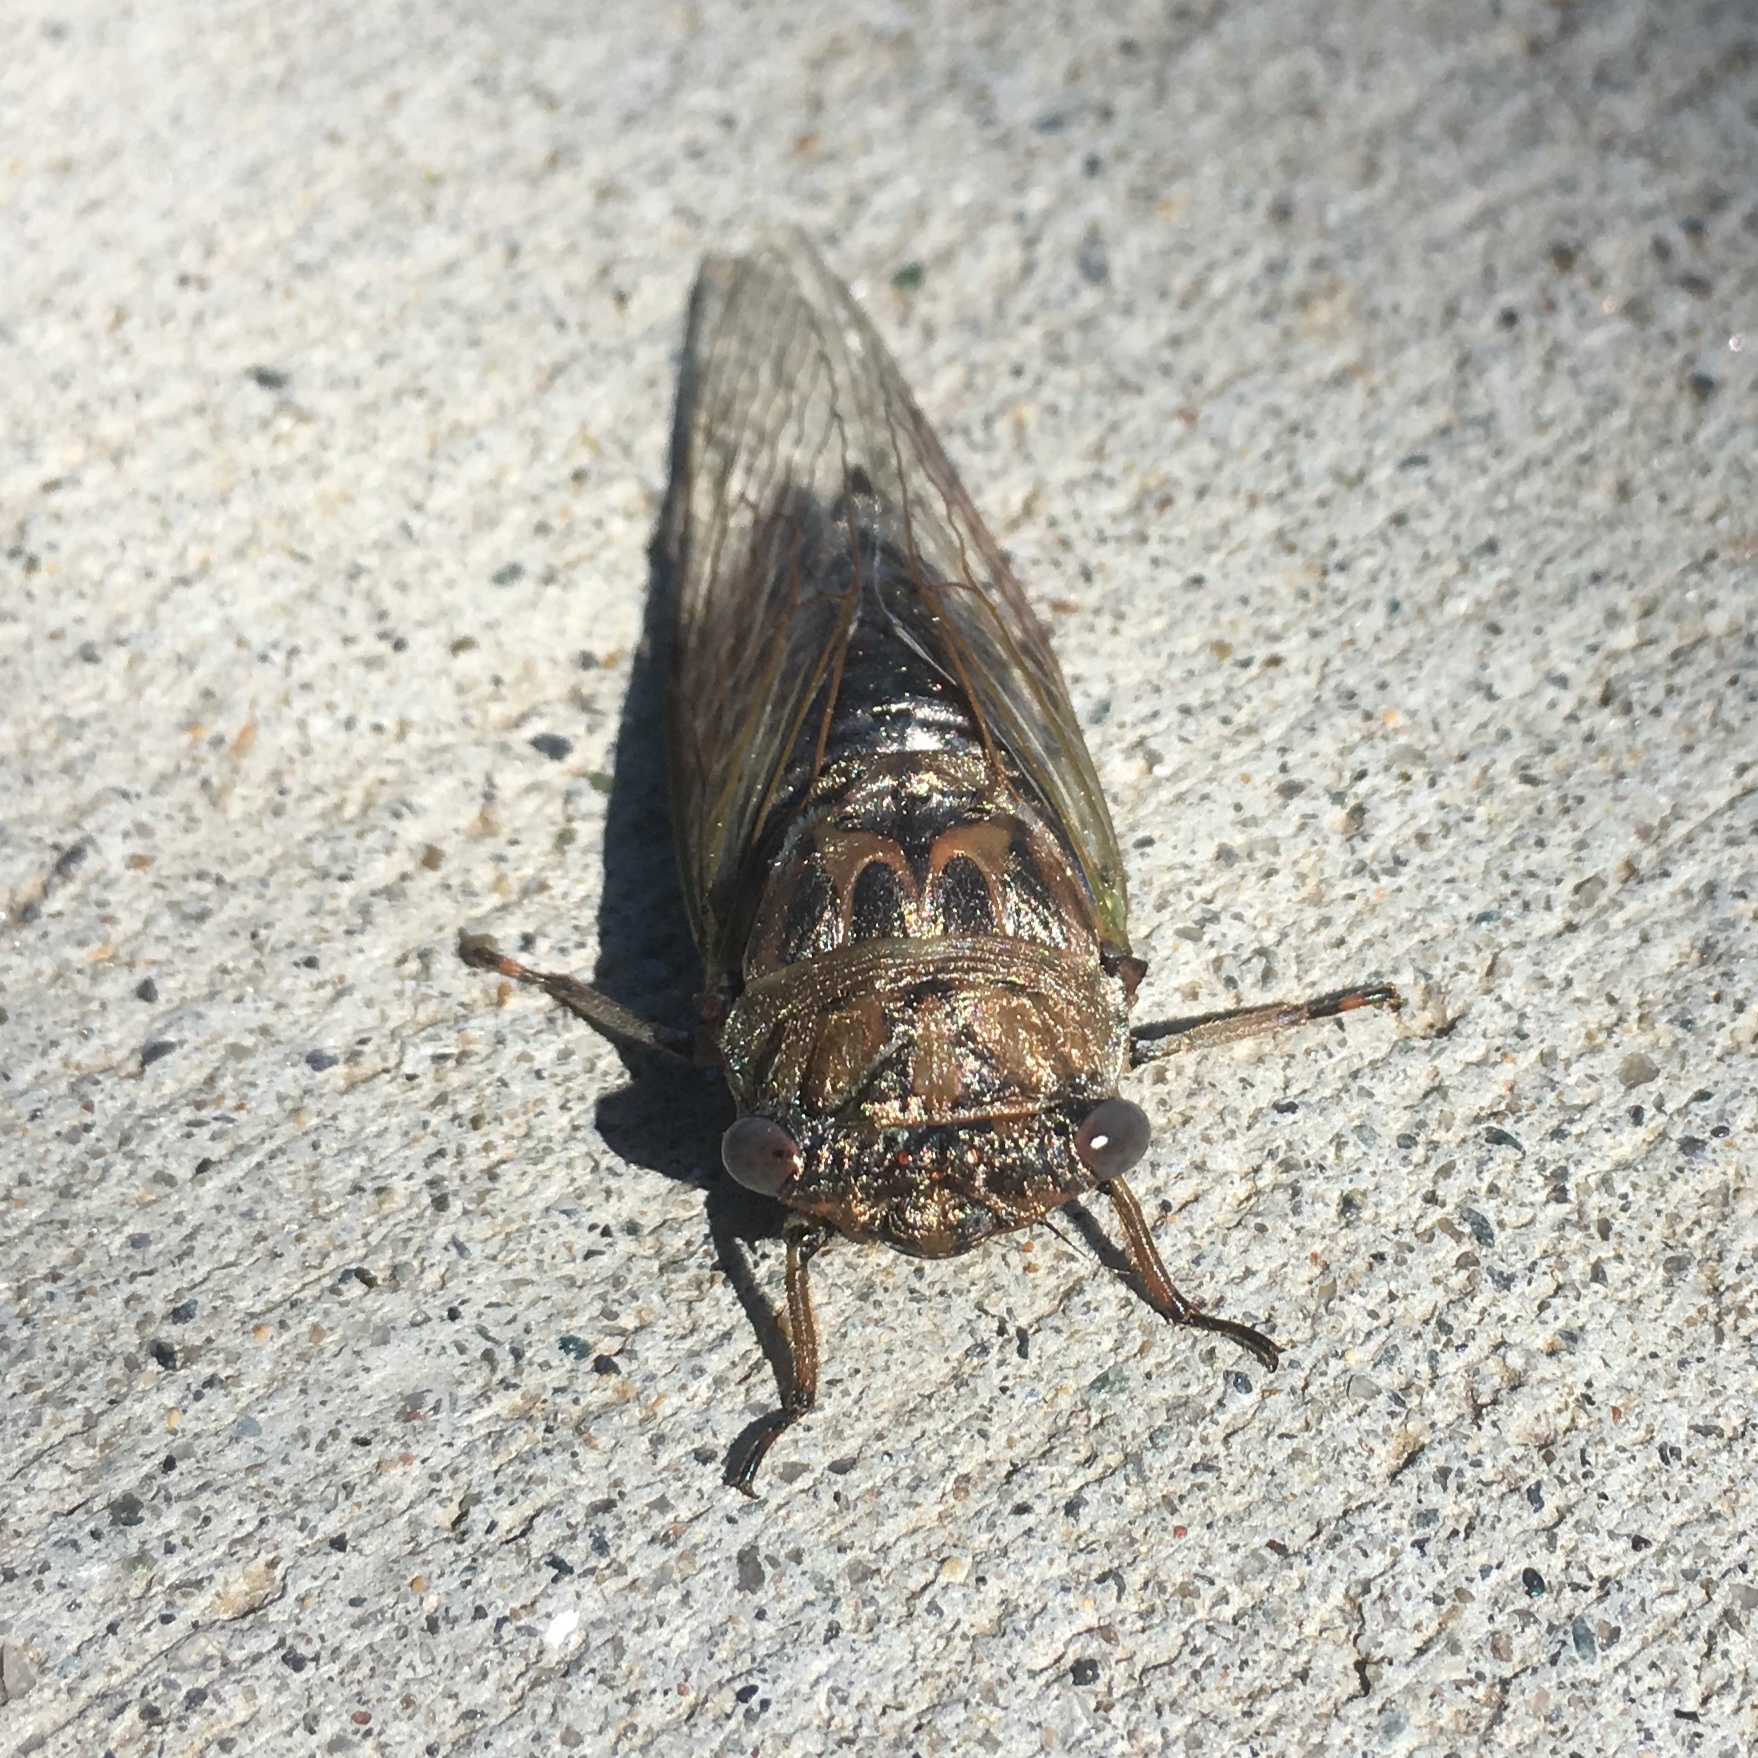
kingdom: Animalia
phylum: Arthropoda
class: Insecta
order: Hemiptera
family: Cicadidae
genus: Neotibicen
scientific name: Neotibicen canicularis
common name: God-day cicada
